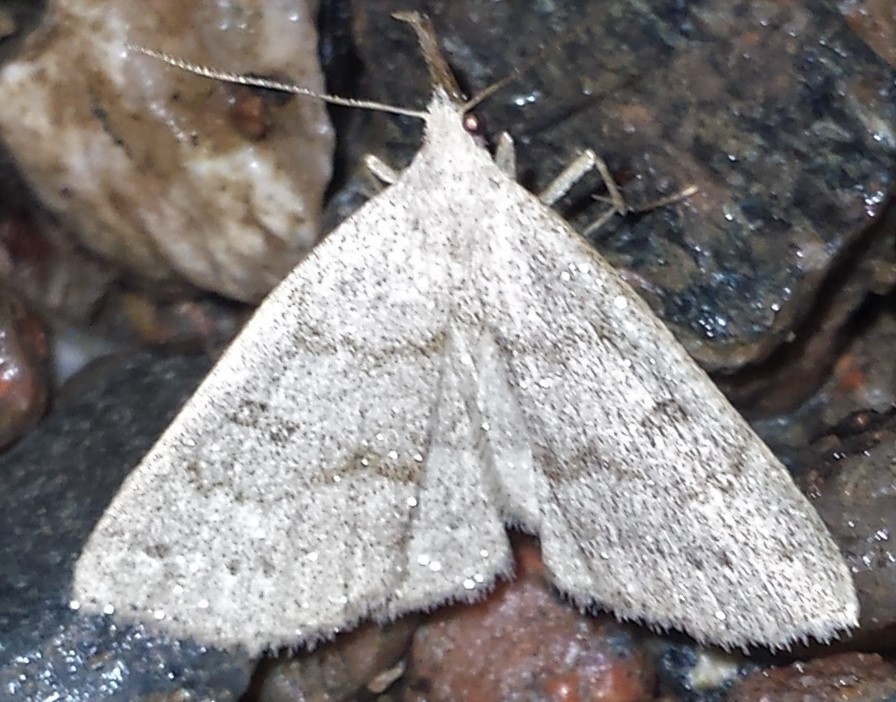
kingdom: Animalia
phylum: Arthropoda
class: Insecta
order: Lepidoptera
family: Erebidae
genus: Macrochilo
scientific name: Macrochilo morbidalis
